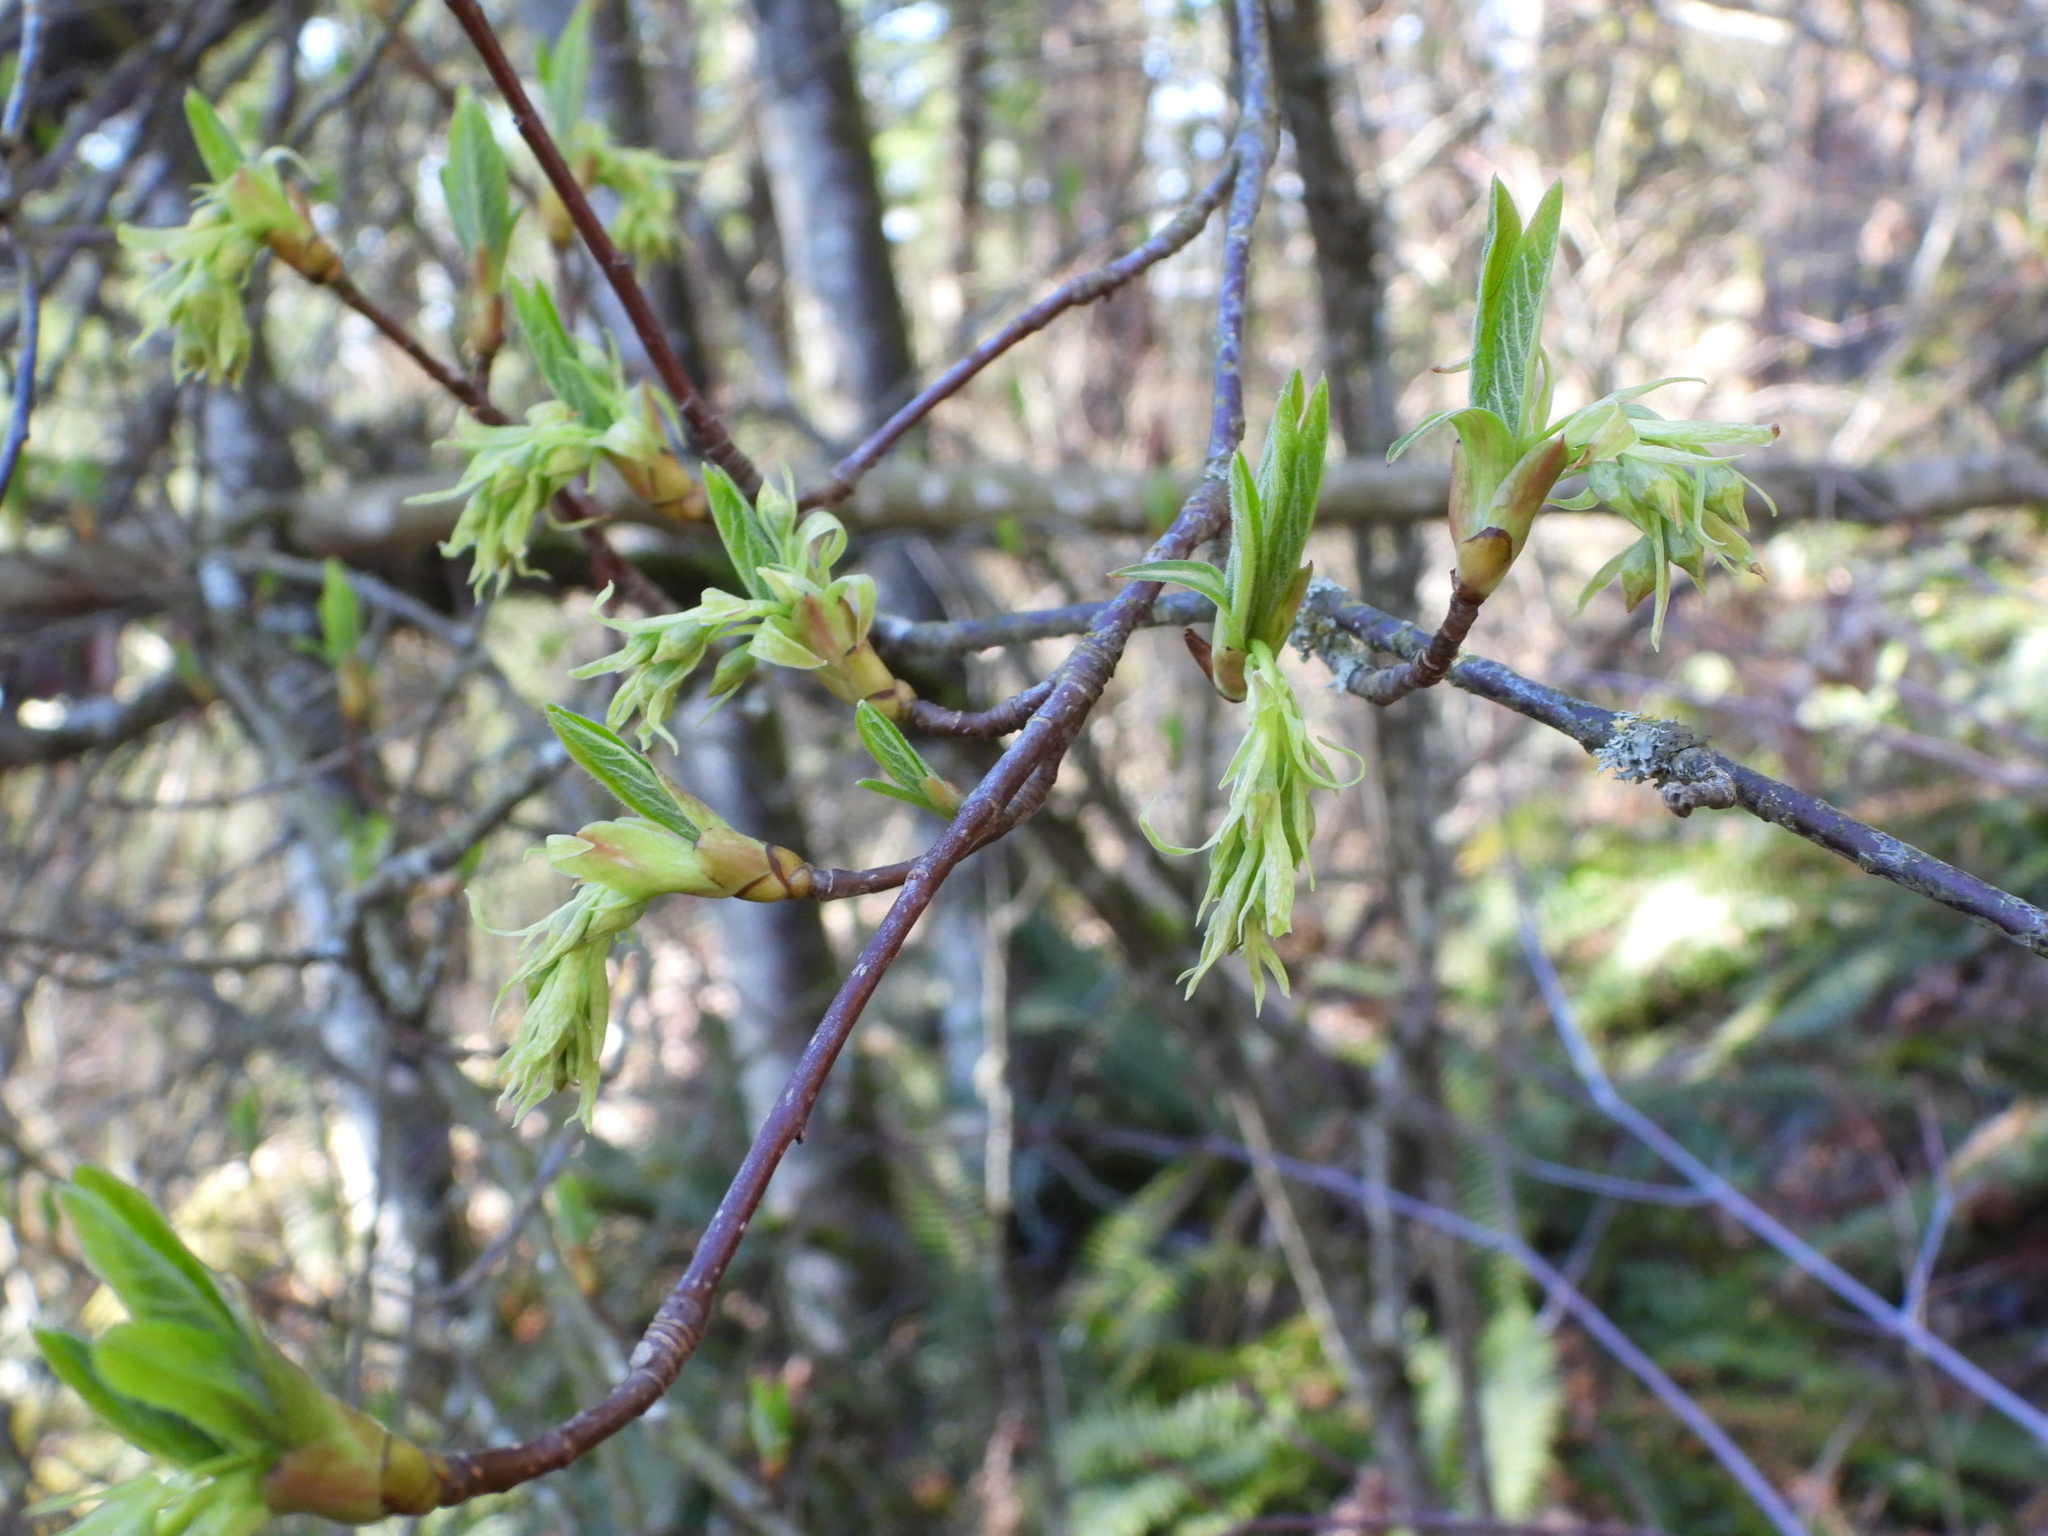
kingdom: Plantae
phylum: Tracheophyta
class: Magnoliopsida
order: Rosales
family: Rosaceae
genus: Oemleria
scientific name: Oemleria cerasiformis
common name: Osoberry
